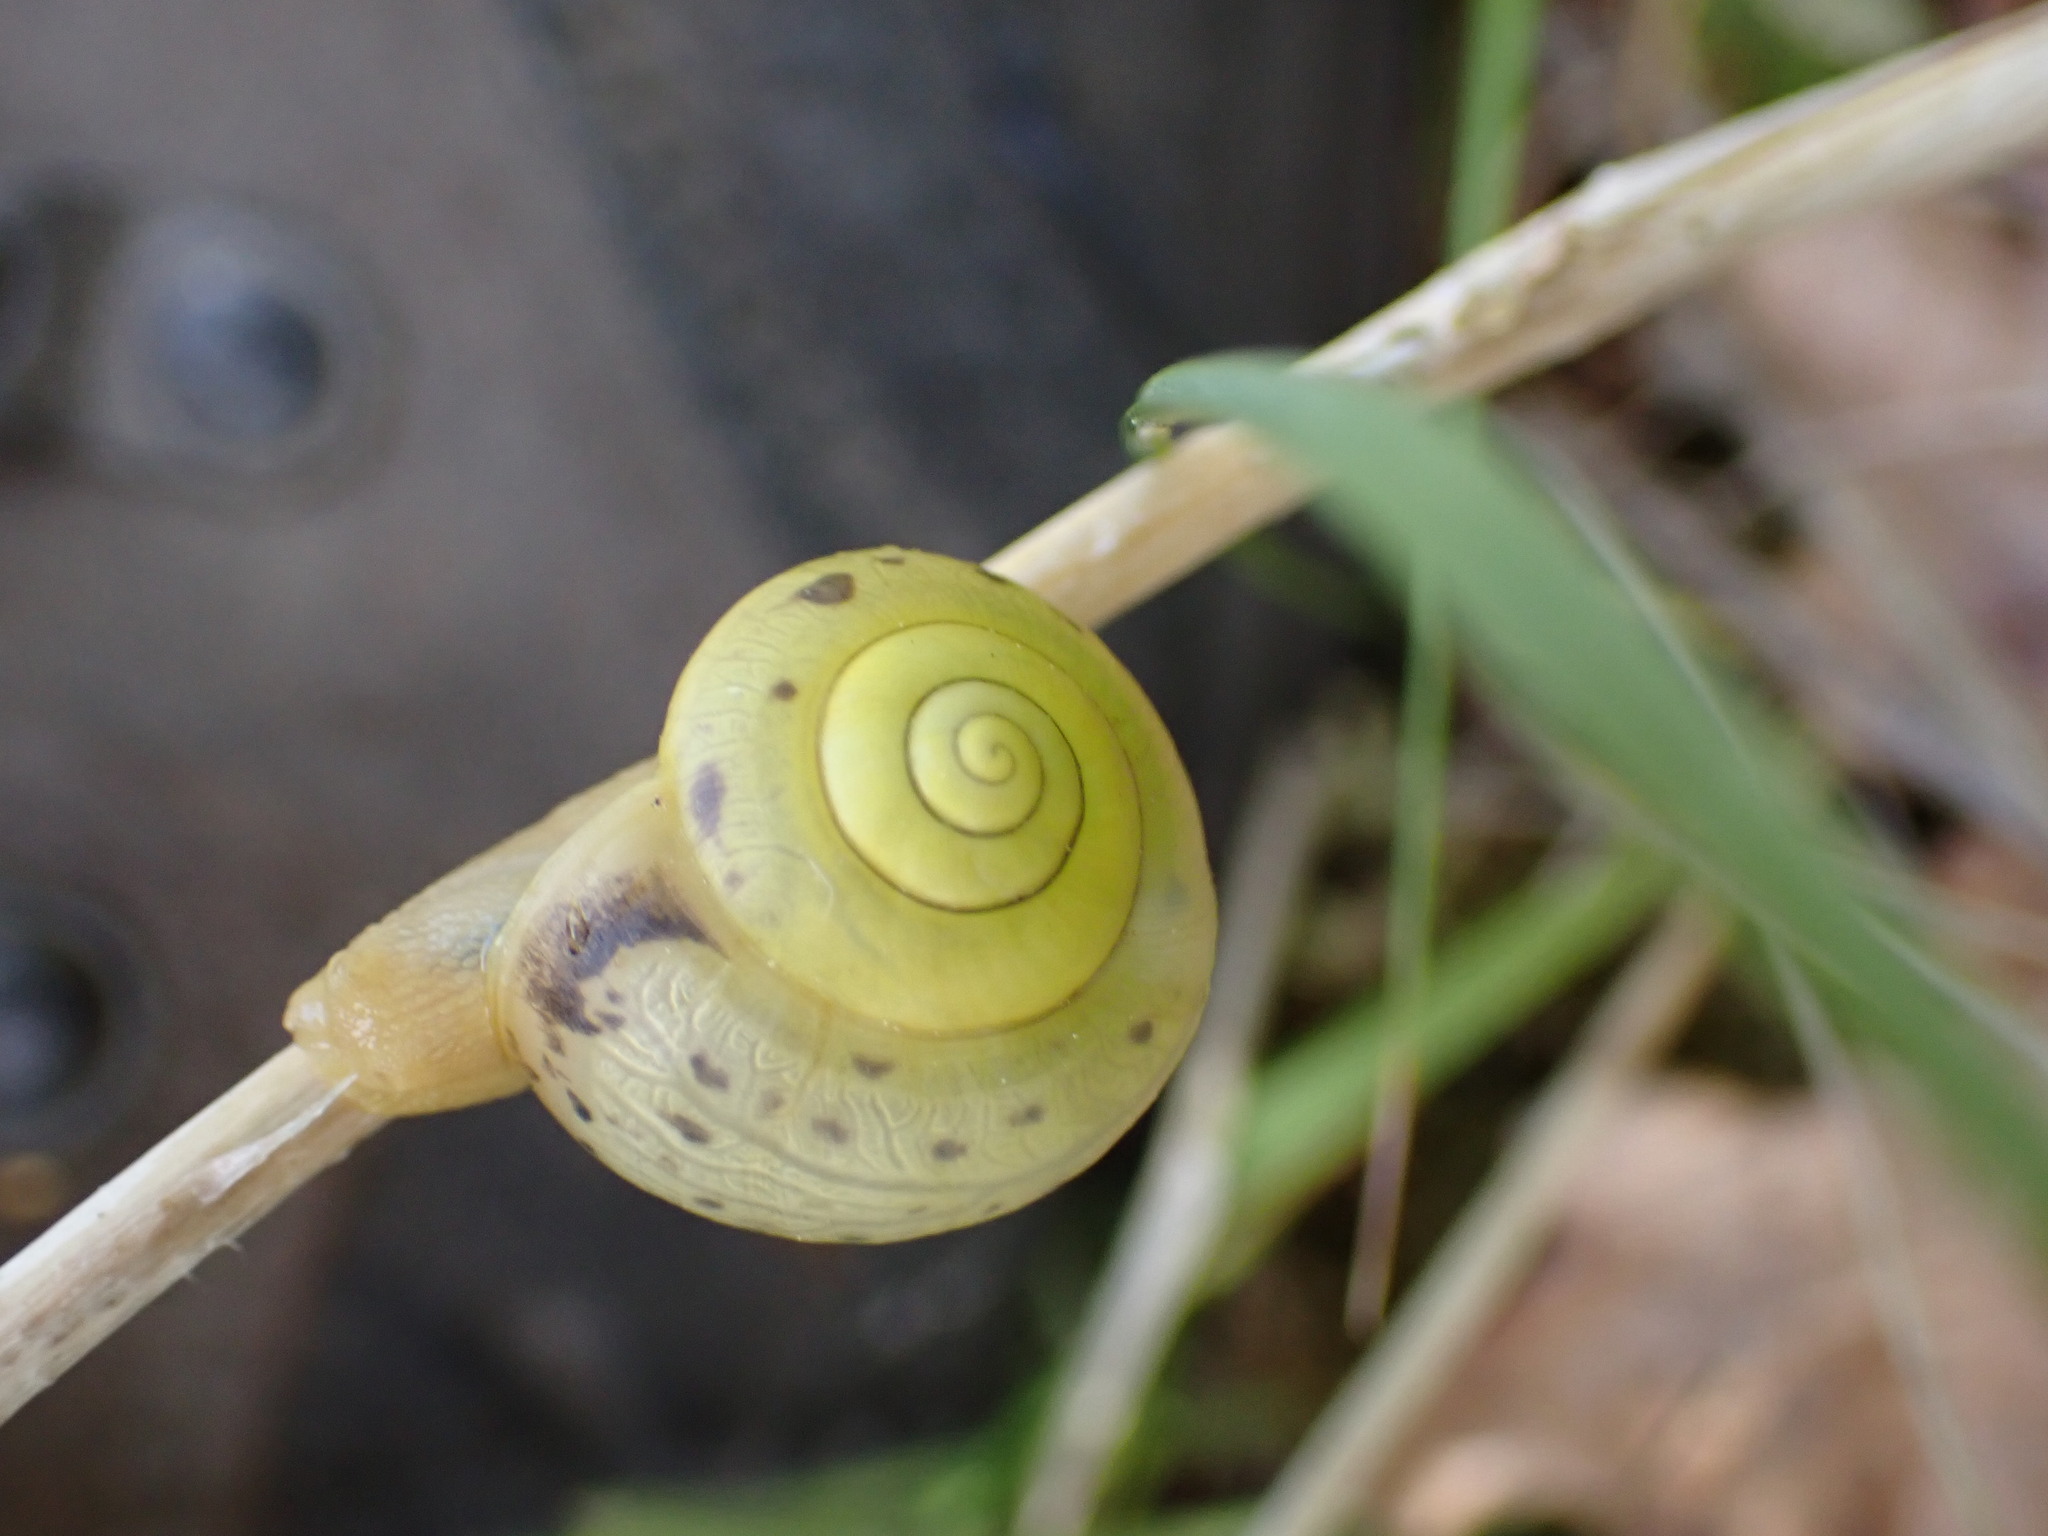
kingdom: Animalia
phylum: Mollusca
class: Gastropoda
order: Stylommatophora
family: Camaenidae
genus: Fruticicola
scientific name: Fruticicola fruticum
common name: Bush snail
